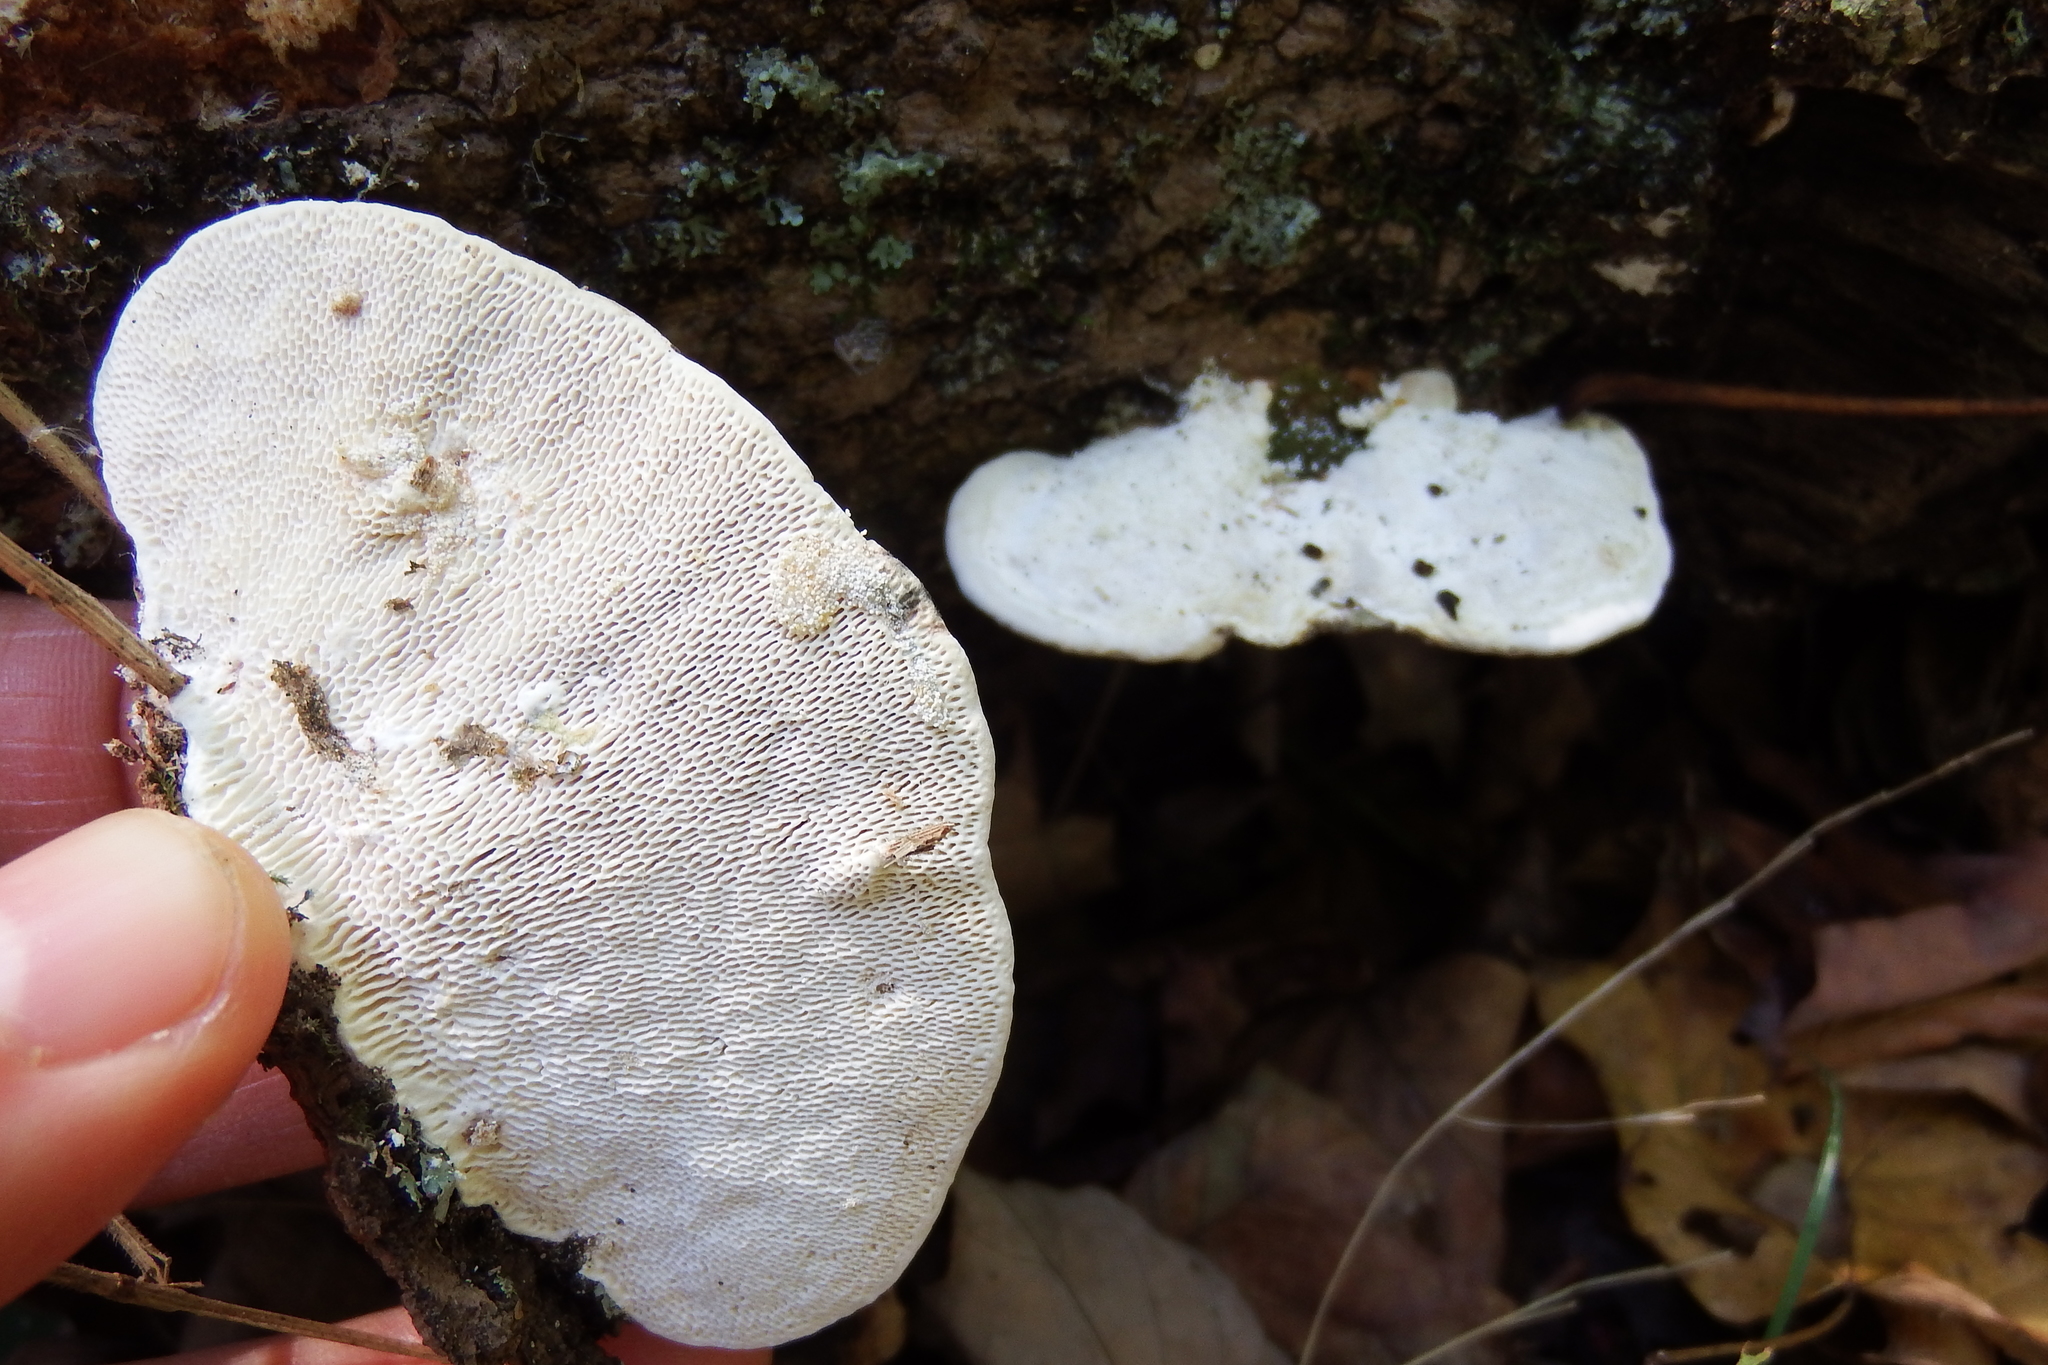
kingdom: Fungi
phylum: Basidiomycota
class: Agaricomycetes
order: Polyporales
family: Polyporaceae
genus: Trametes
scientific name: Trametes gibbosa
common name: Lumpy bracket
